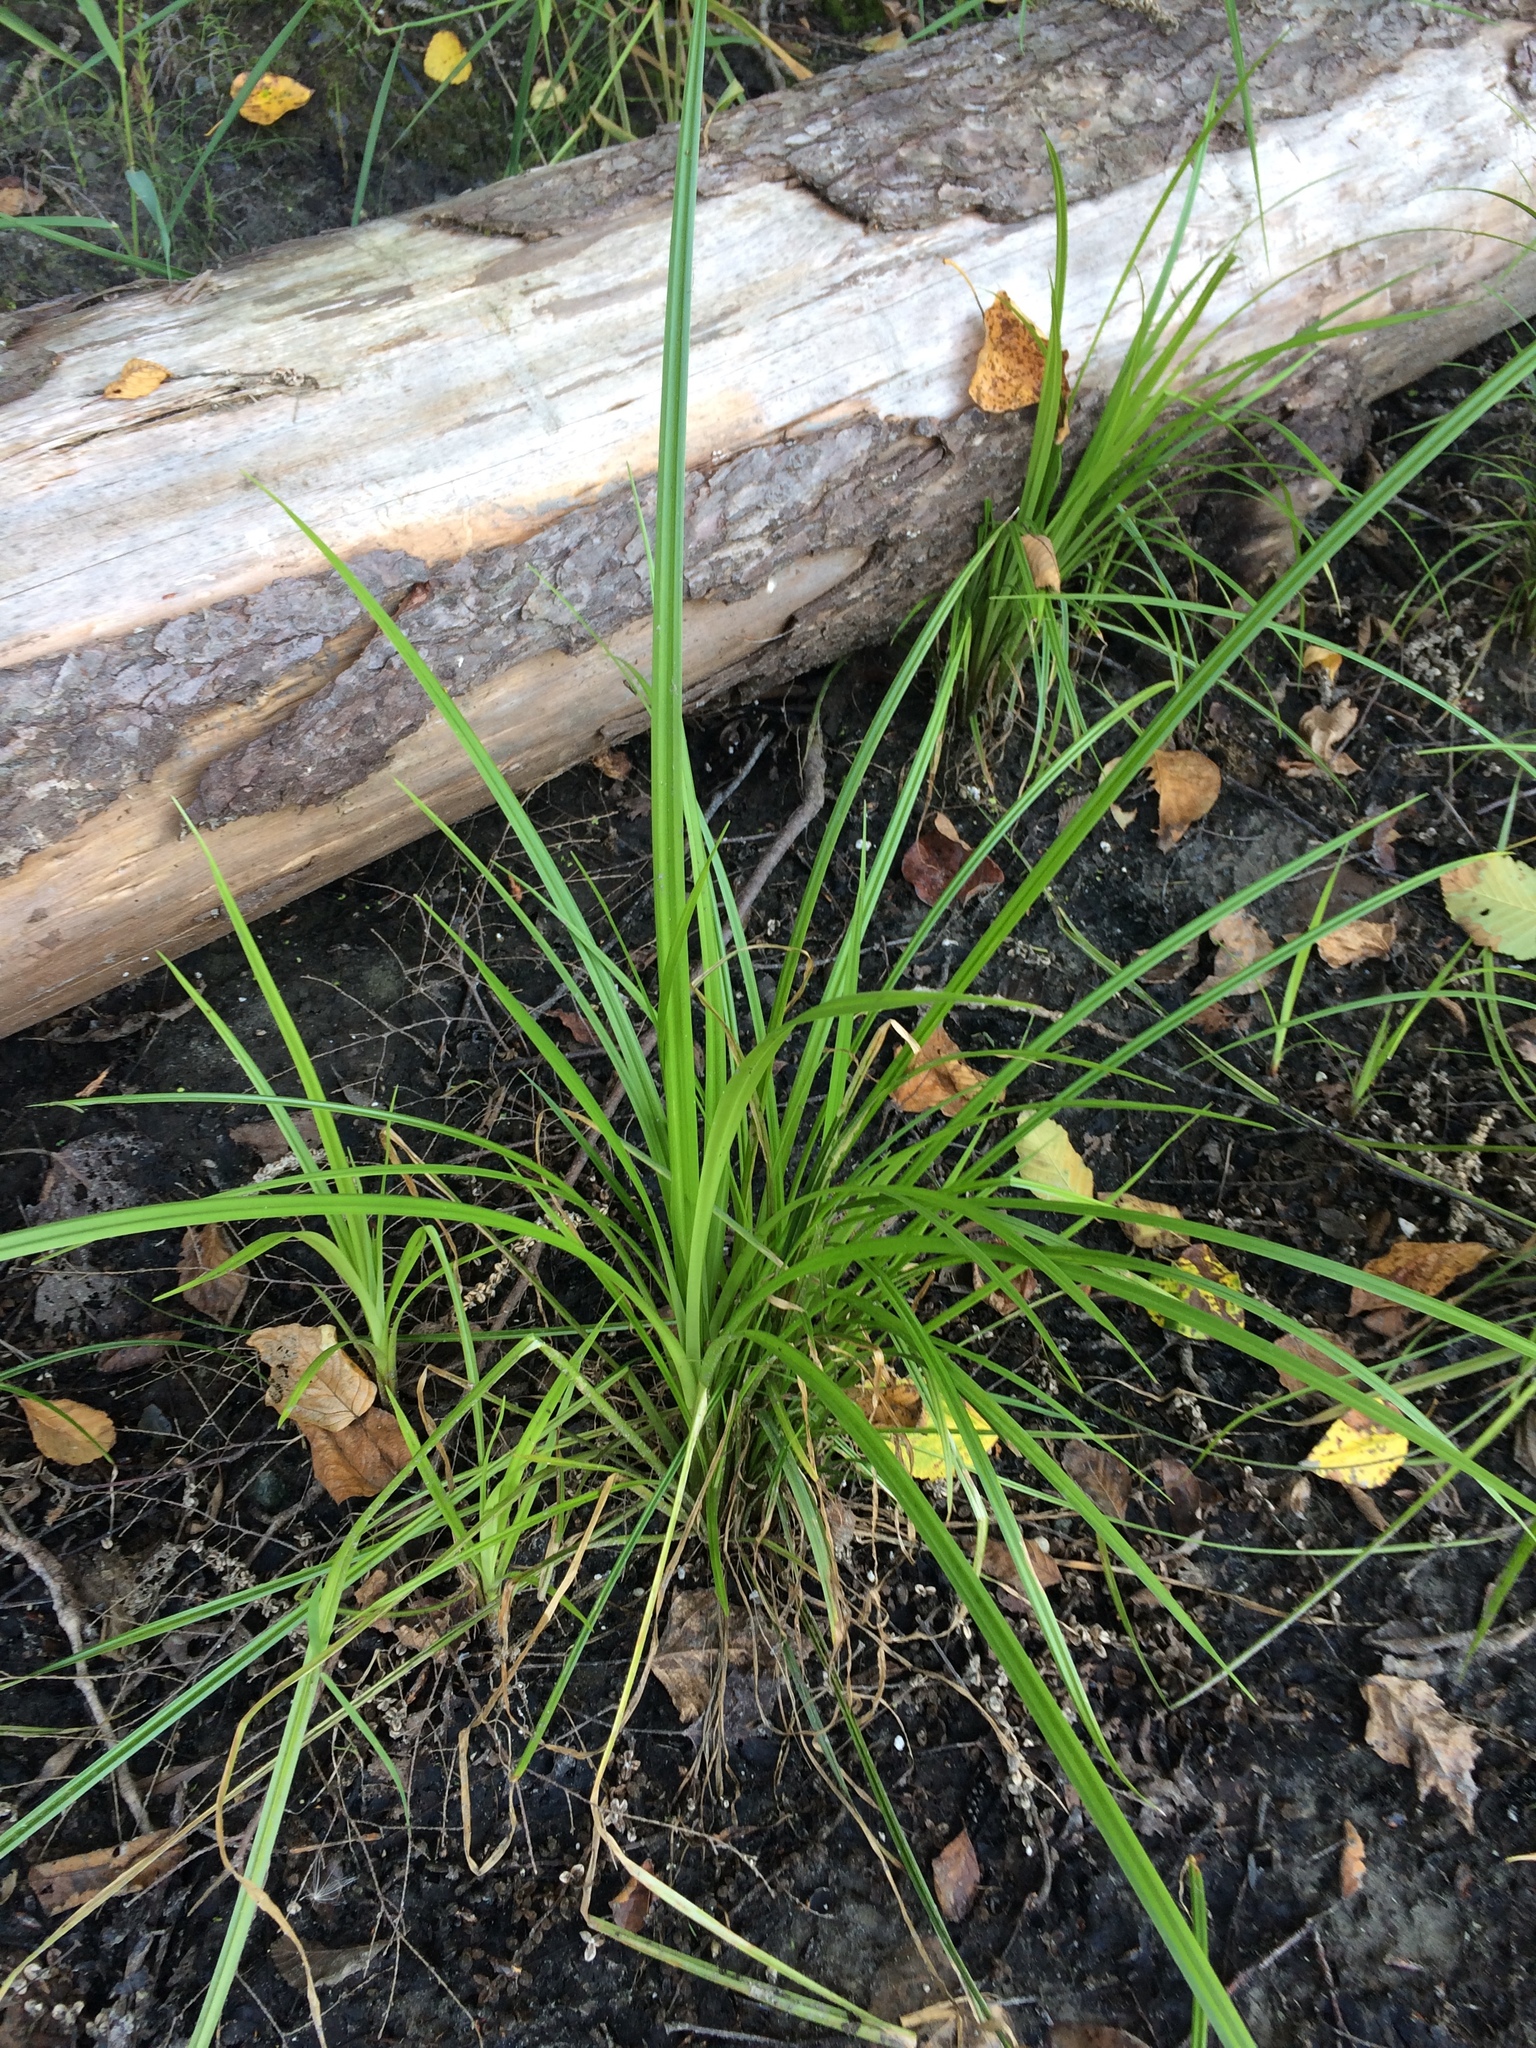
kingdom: Plantae
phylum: Tracheophyta
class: Liliopsida
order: Poales
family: Cyperaceae
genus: Scirpus
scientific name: Scirpus microcarpus
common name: Panicled bulrush
